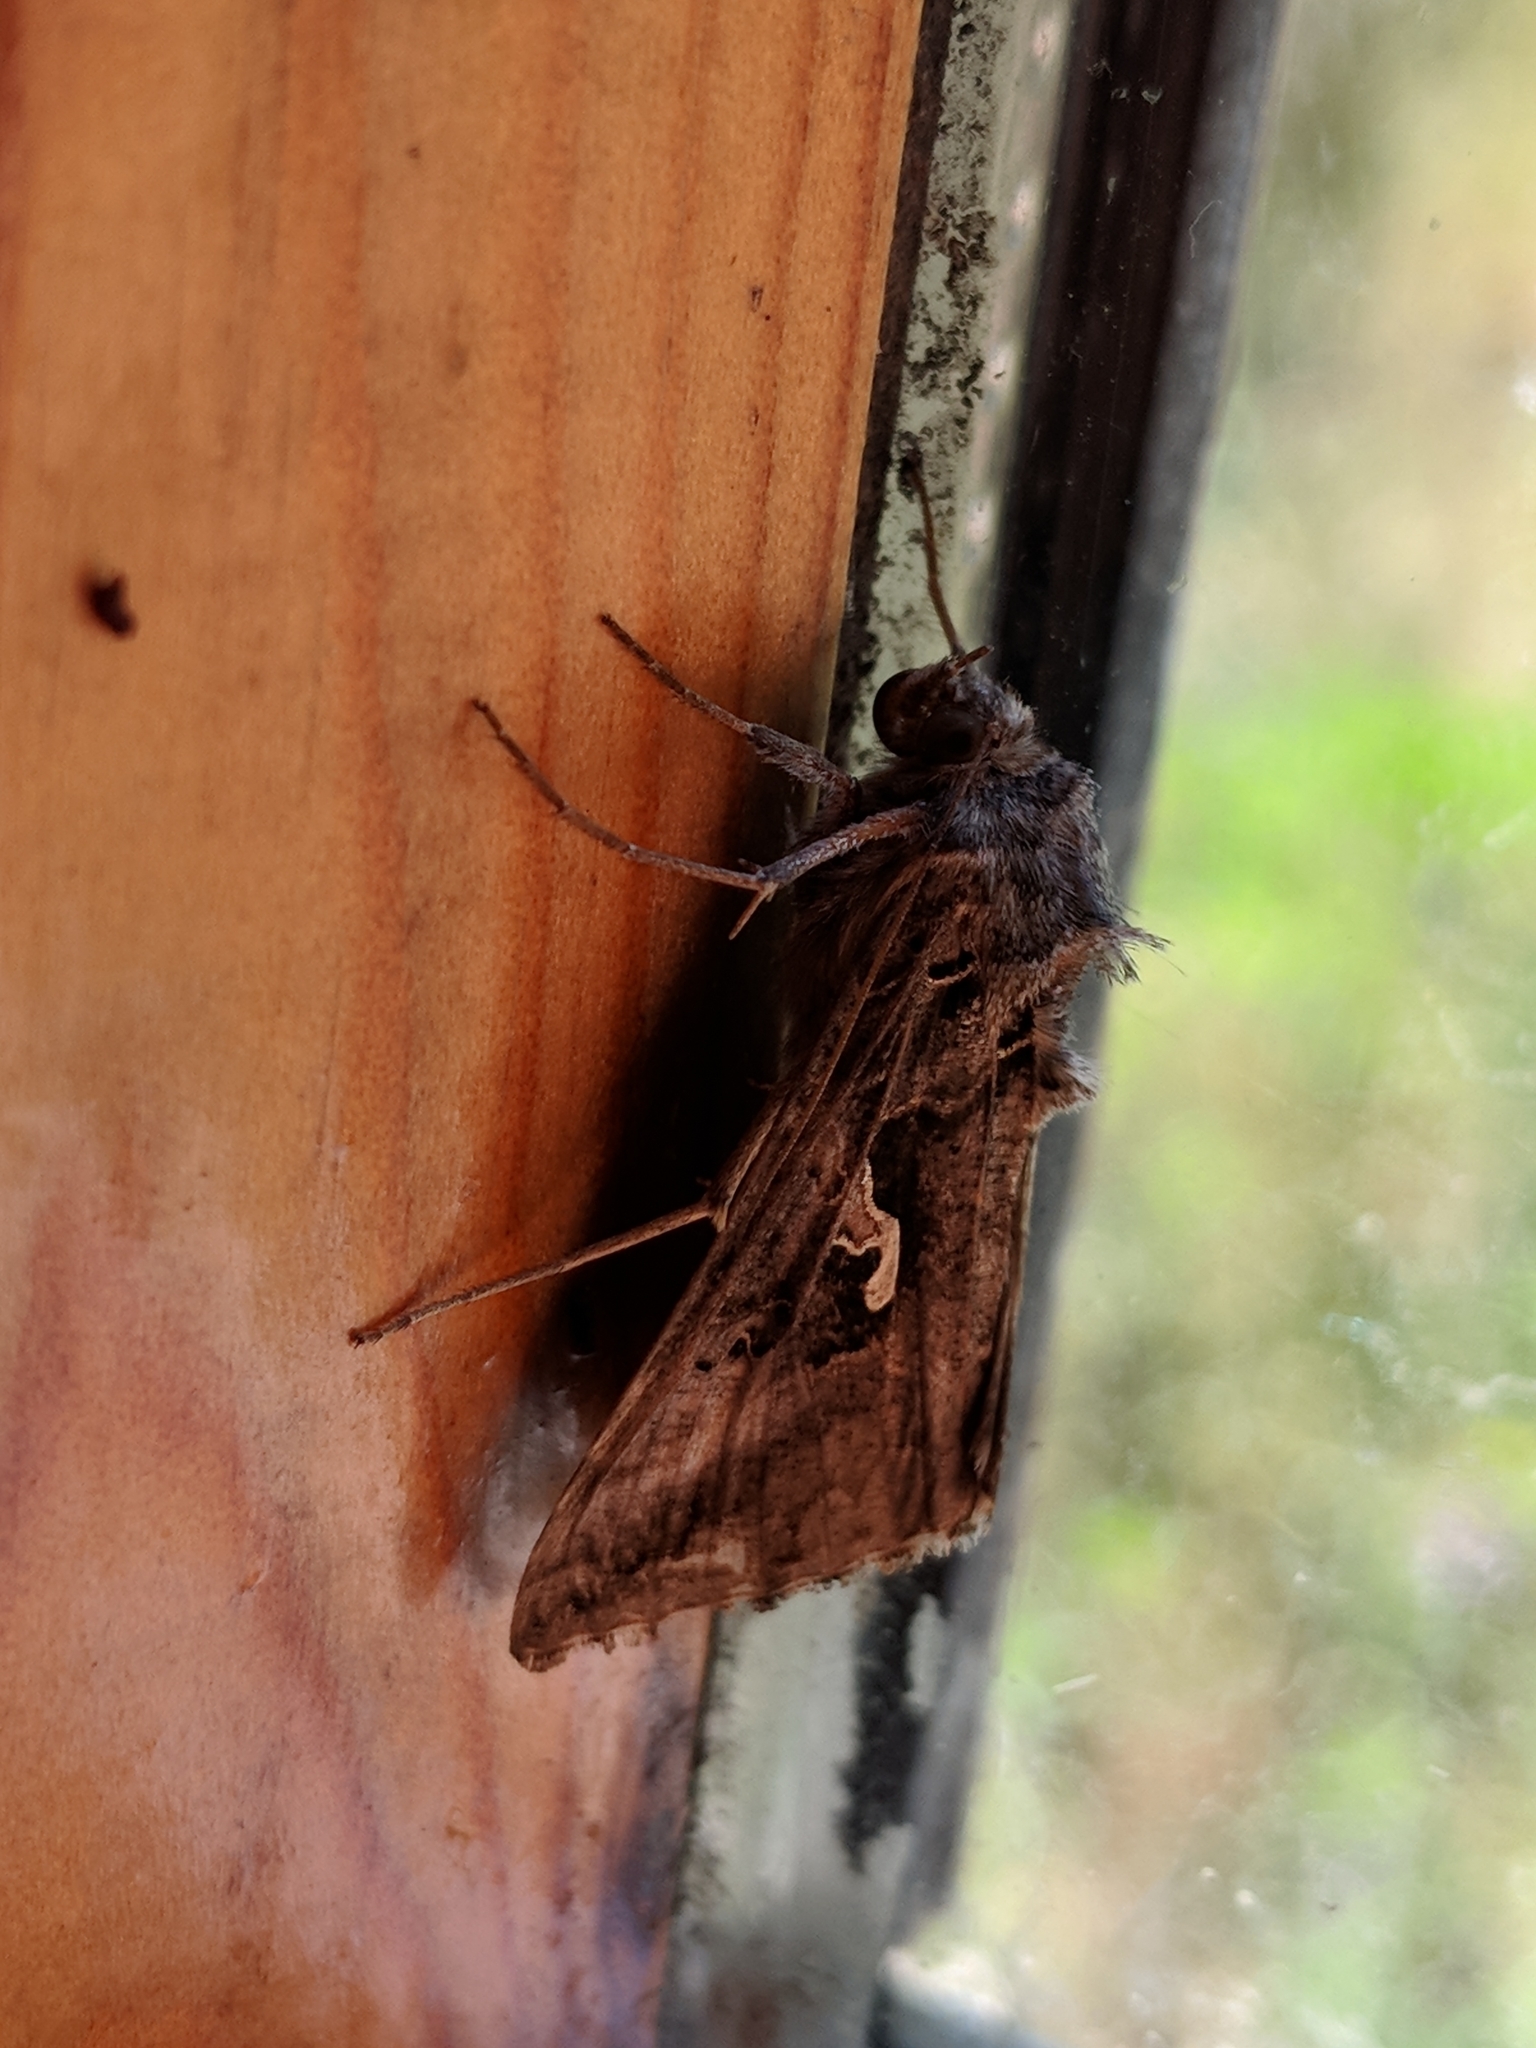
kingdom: Animalia
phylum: Arthropoda
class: Insecta
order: Lepidoptera
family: Noctuidae
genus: Autographa
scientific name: Autographa gamma
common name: Silver y
